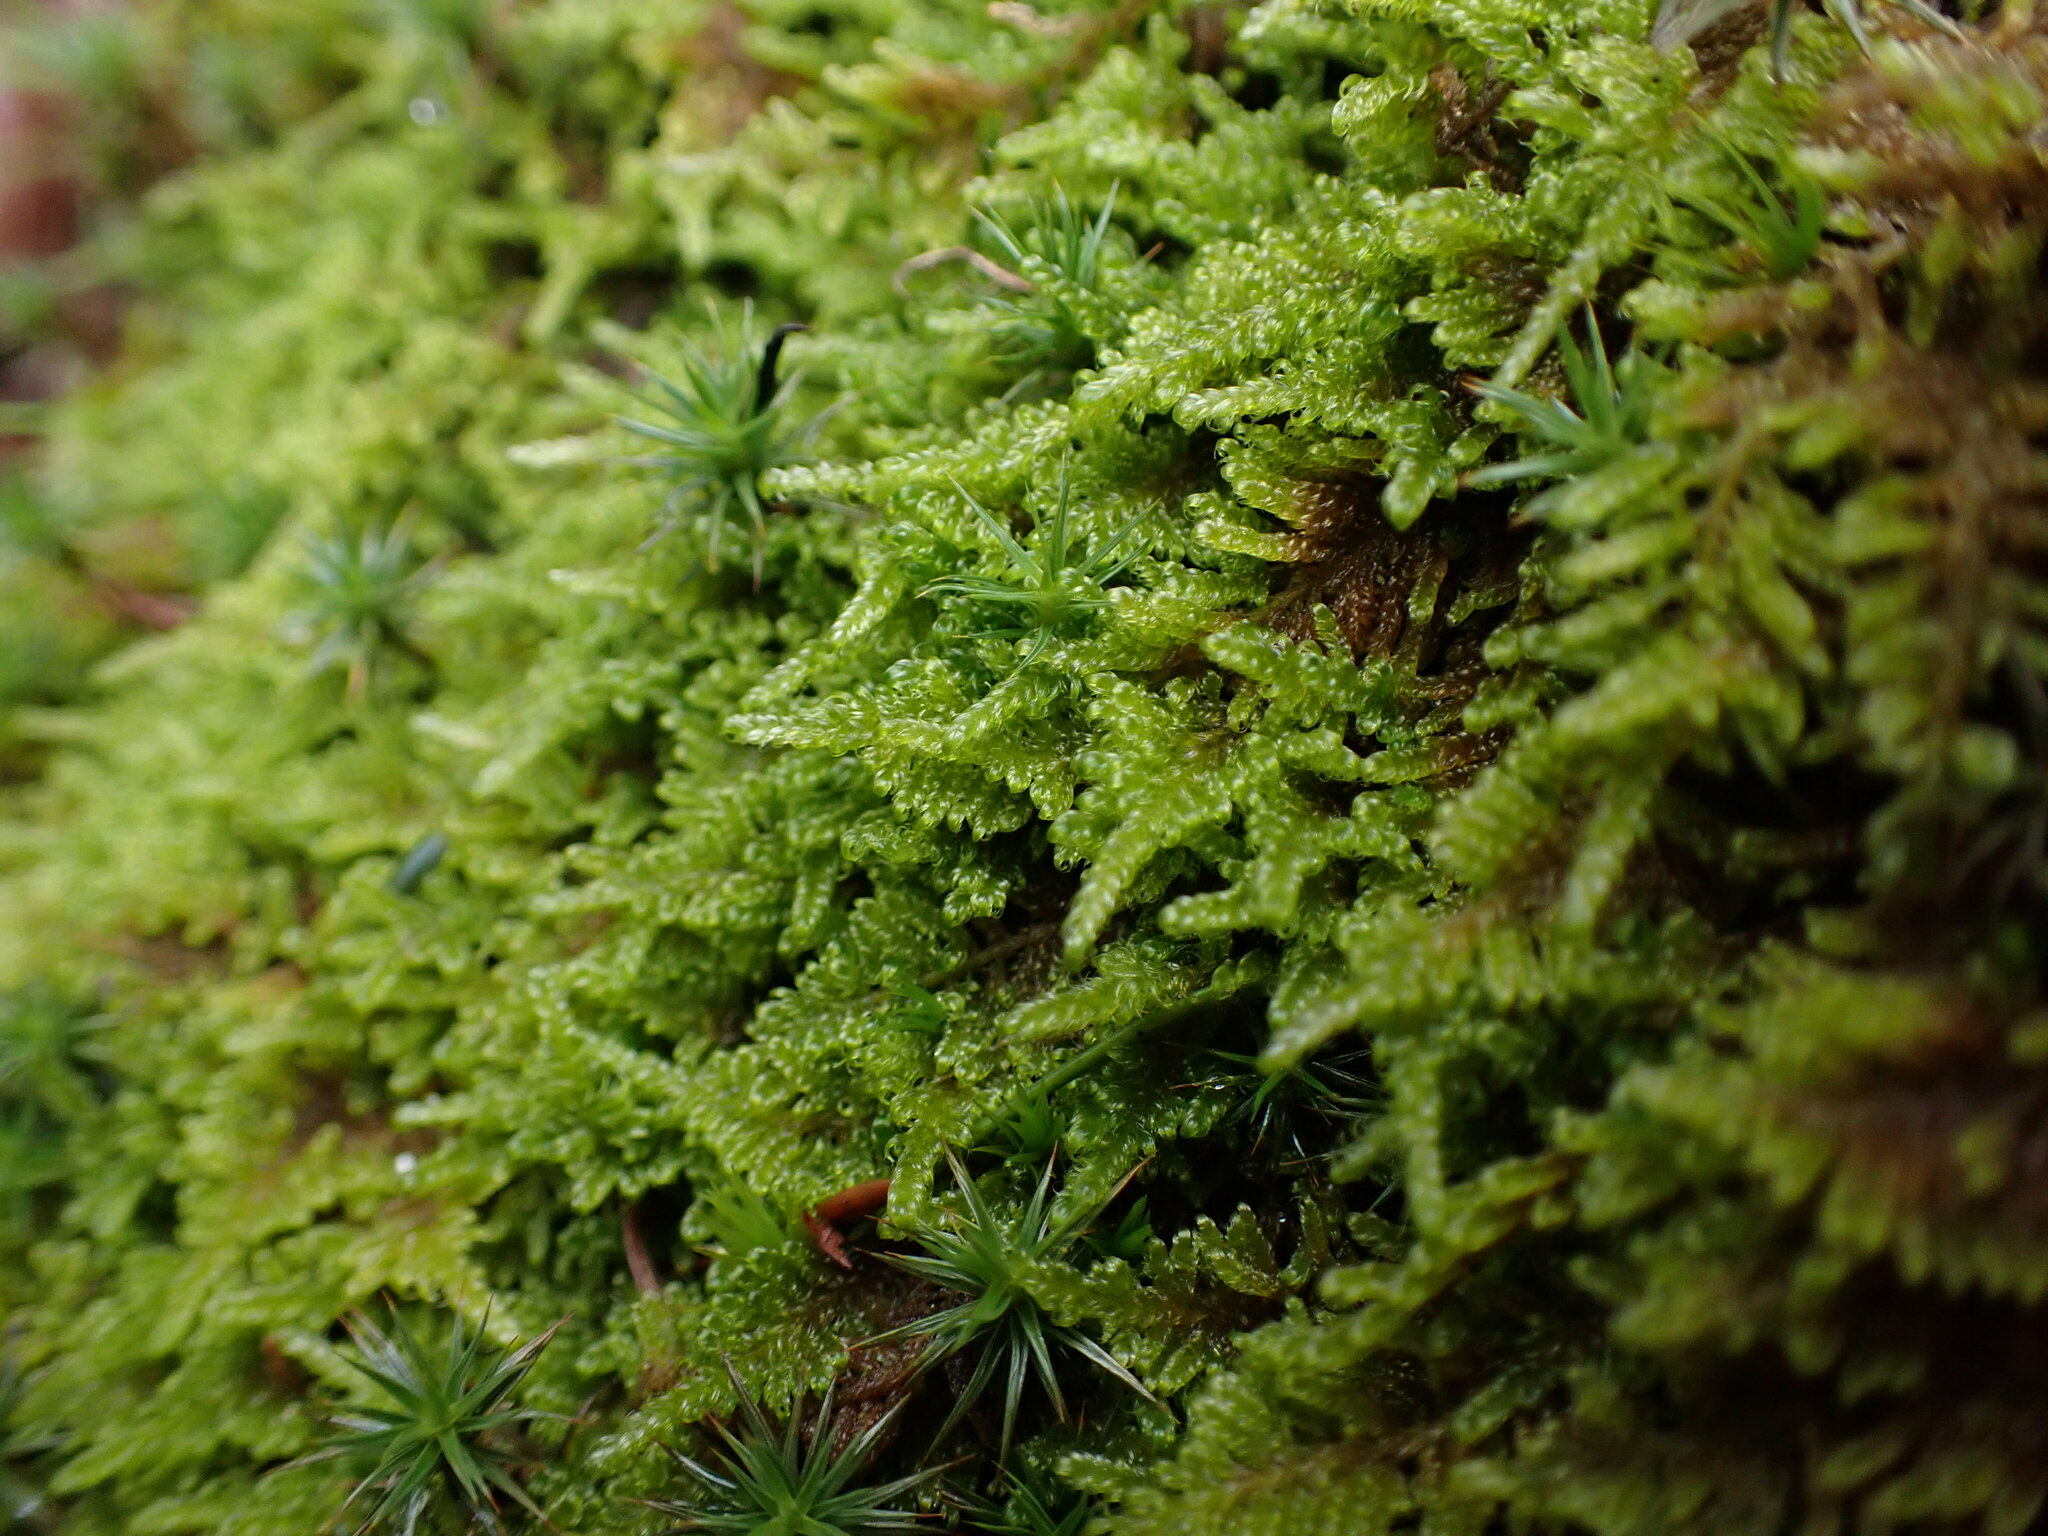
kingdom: Plantae
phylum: Bryophyta
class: Bryopsida
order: Hypnales
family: Stereodontaceae
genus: Stereodon
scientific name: Stereodon subimponens
